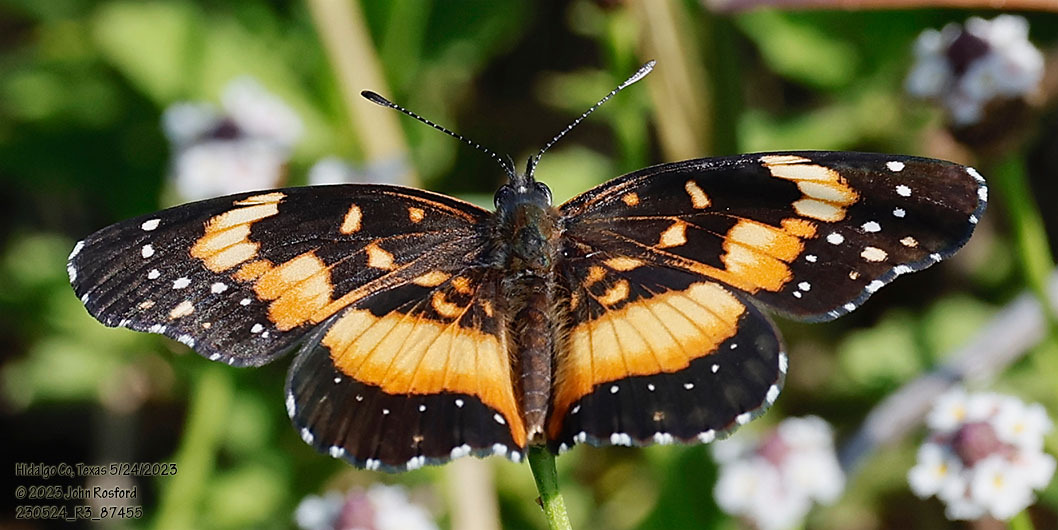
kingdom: Animalia
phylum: Arthropoda
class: Insecta
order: Lepidoptera
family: Nymphalidae
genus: Chlosyne
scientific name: Chlosyne lacinia
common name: Bordered patch
